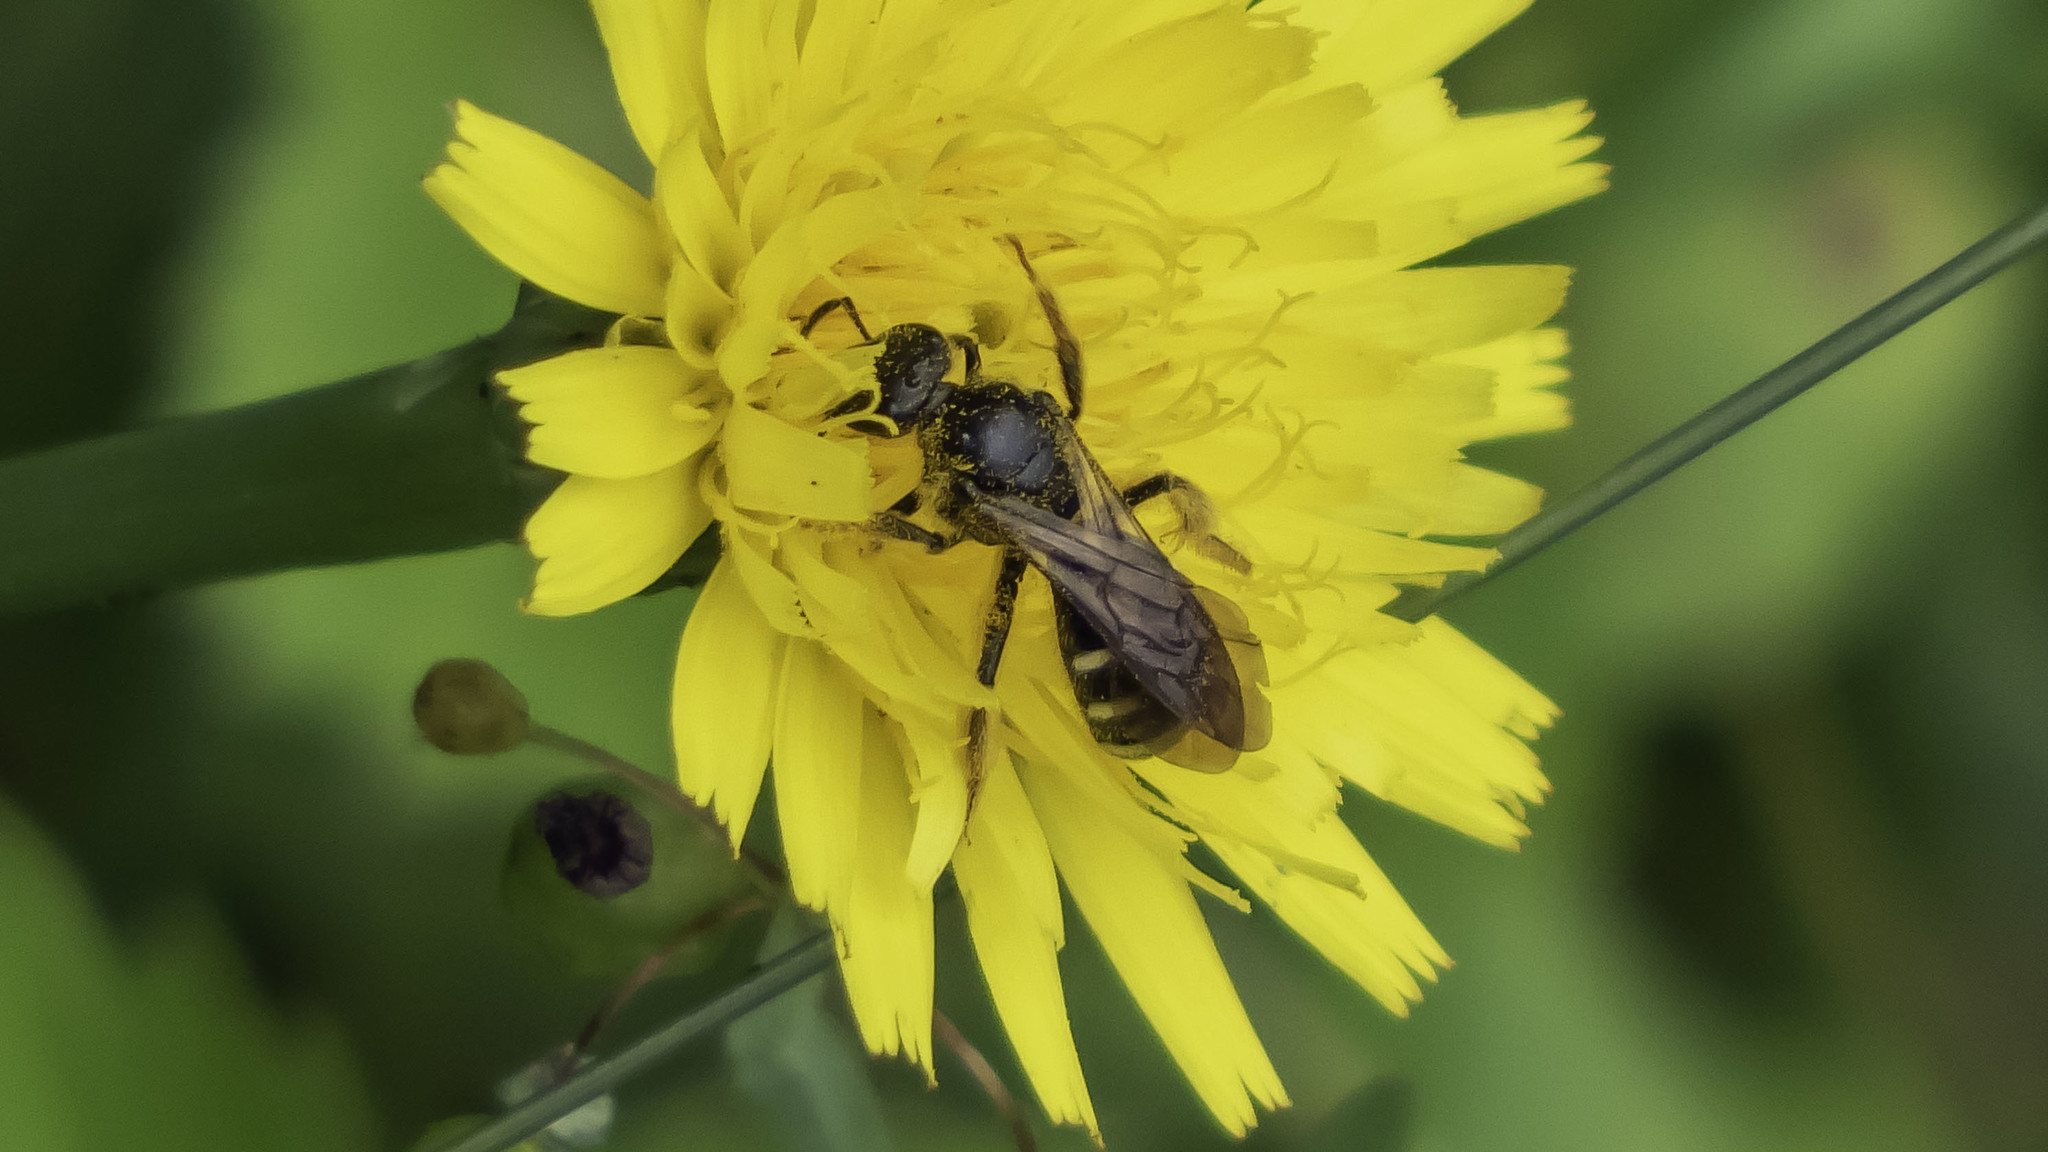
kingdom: Animalia
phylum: Arthropoda
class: Insecta
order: Hymenoptera
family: Halictidae
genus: Lasioglossum
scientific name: Lasioglossum fuscipenne
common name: Brown-winged sweat bee
